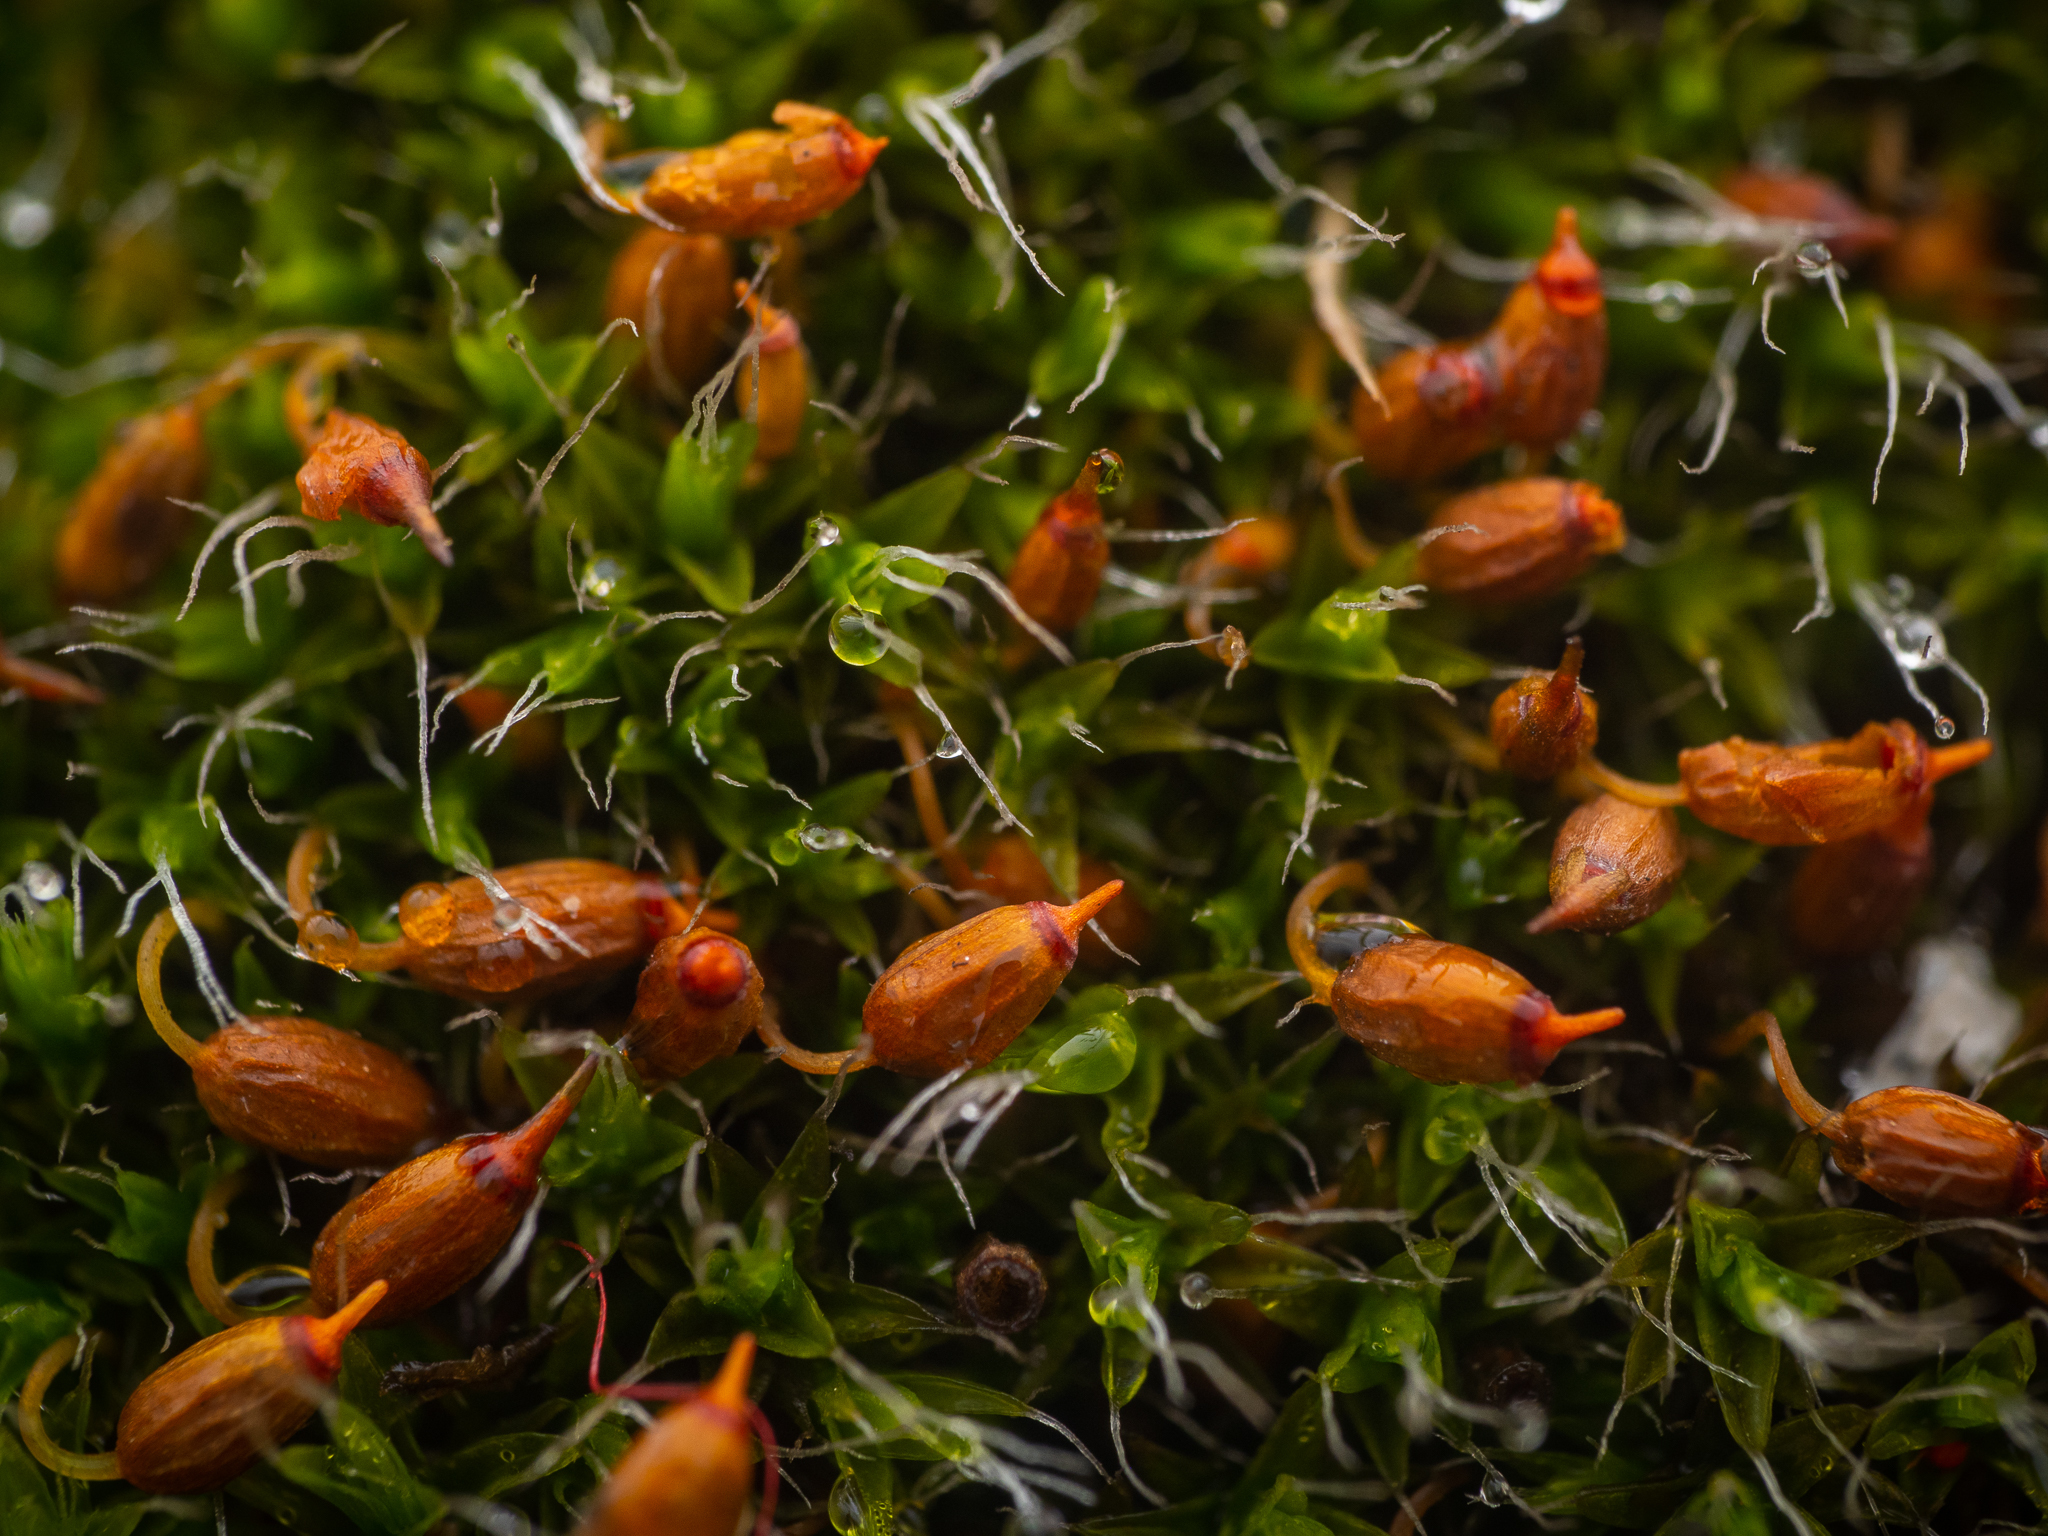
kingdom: Plantae
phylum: Bryophyta
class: Bryopsida
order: Grimmiales
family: Grimmiaceae
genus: Grimmia
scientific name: Grimmia pulvinata
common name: Grey-cushioned grimmia
